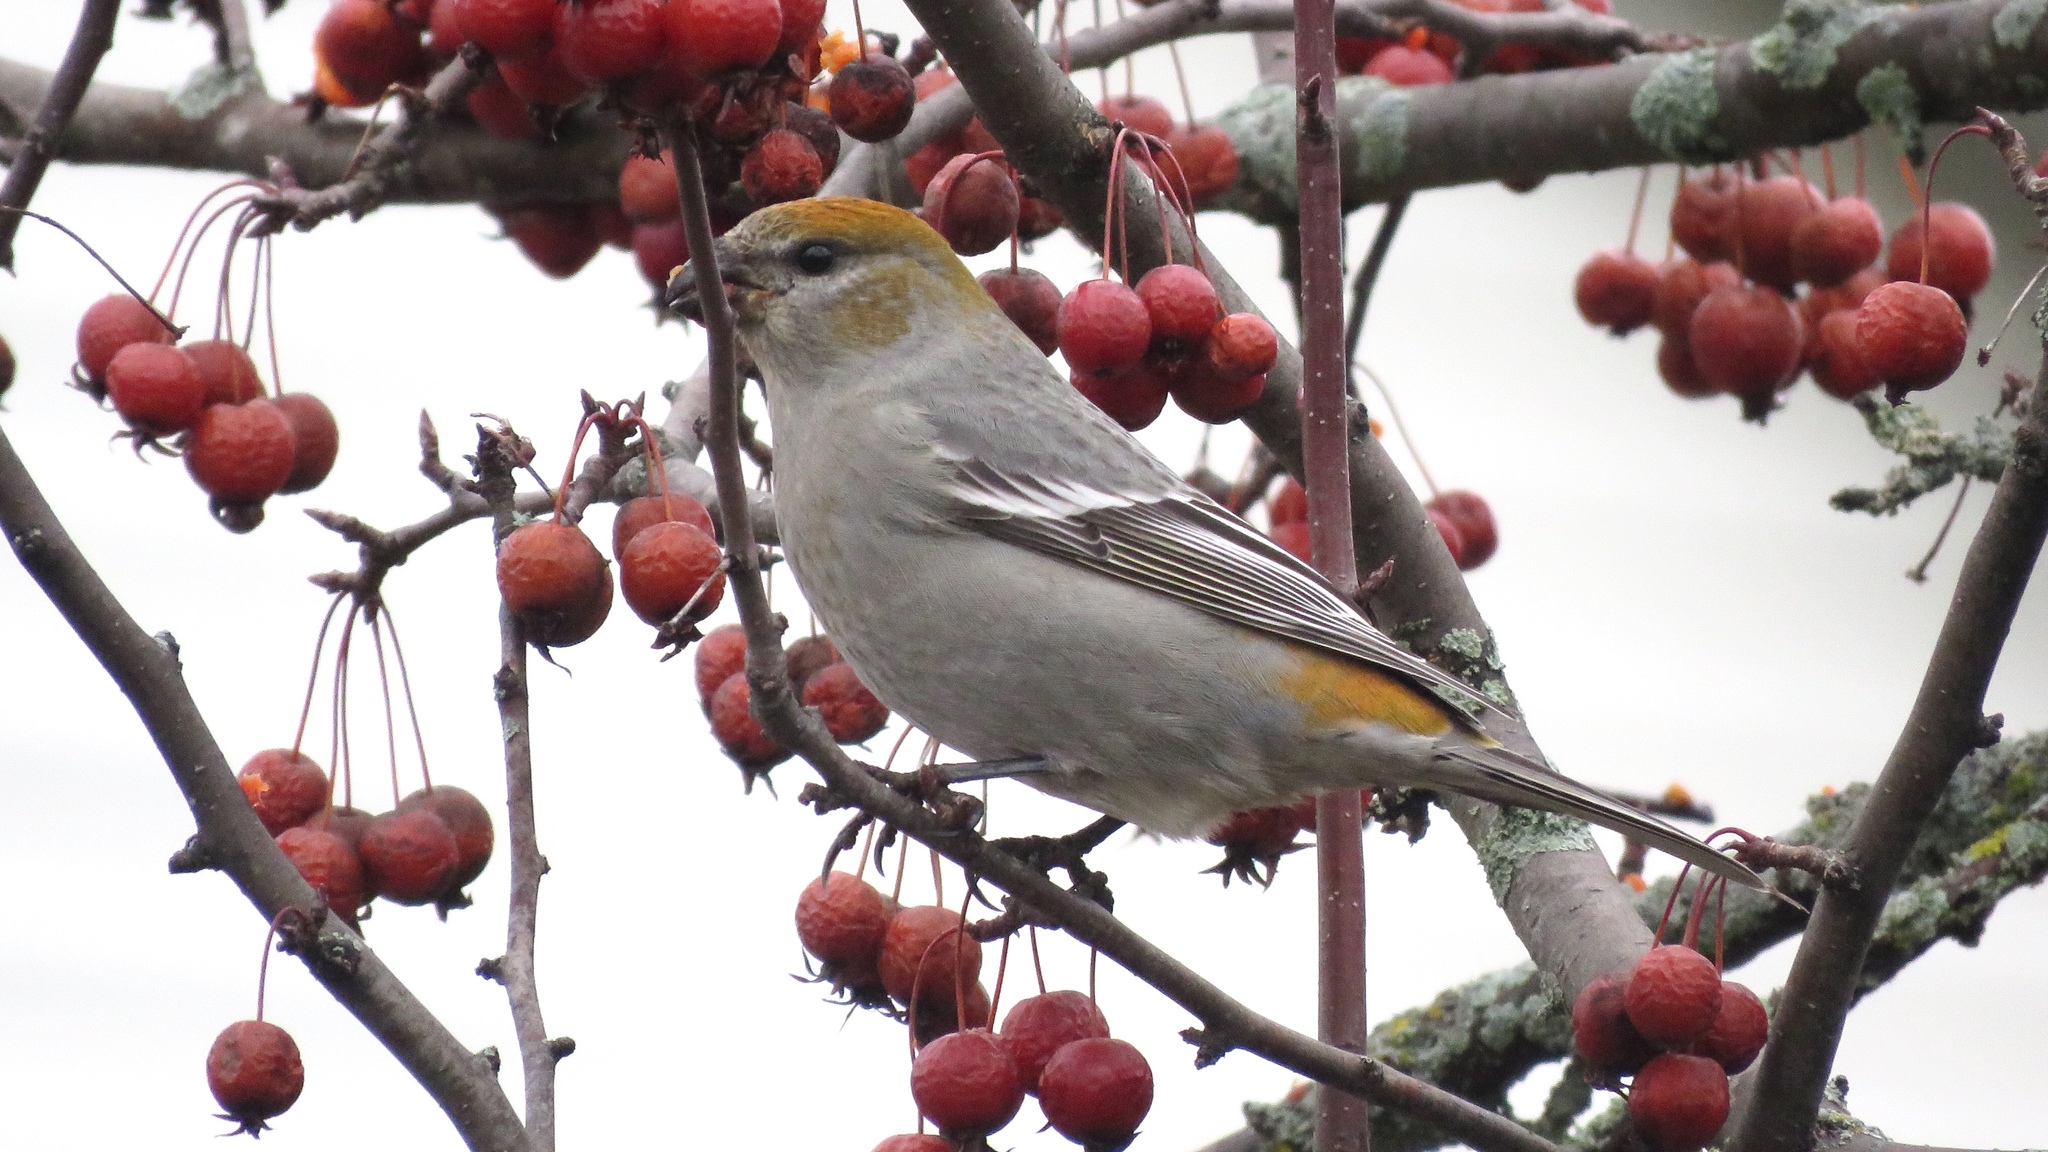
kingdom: Animalia
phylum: Chordata
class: Aves
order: Passeriformes
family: Fringillidae
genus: Pinicola
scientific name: Pinicola enucleator
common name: Pine grosbeak
